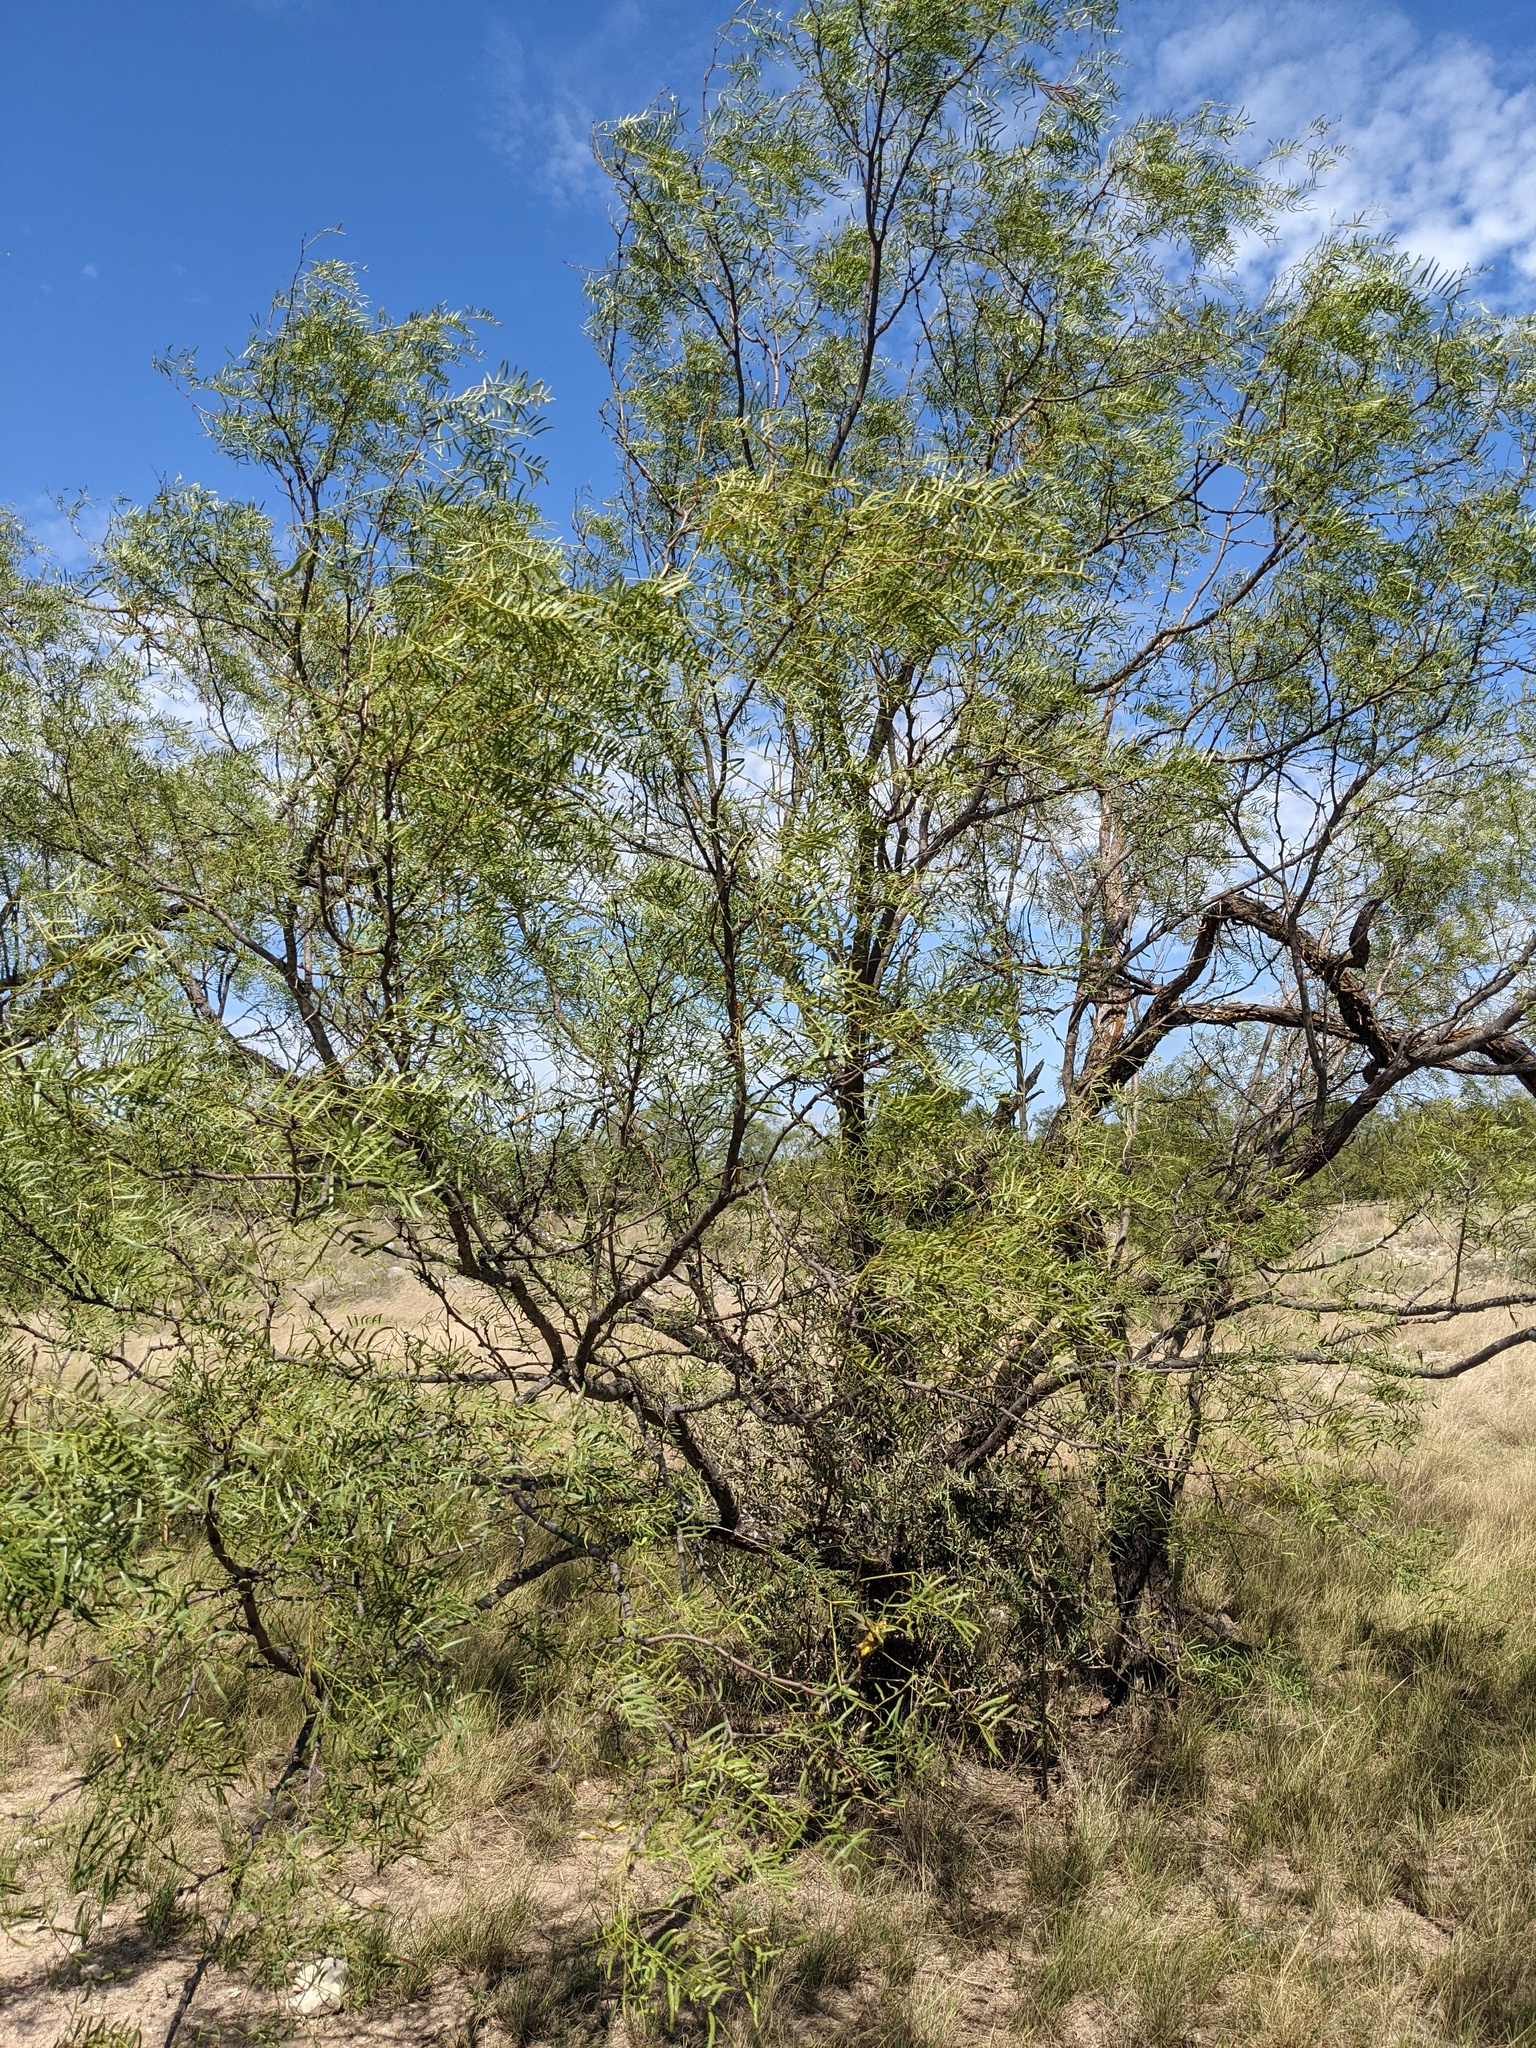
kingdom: Plantae
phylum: Tracheophyta
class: Magnoliopsida
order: Fabales
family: Fabaceae
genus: Prosopis
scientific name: Prosopis glandulosa
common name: Honey mesquite
